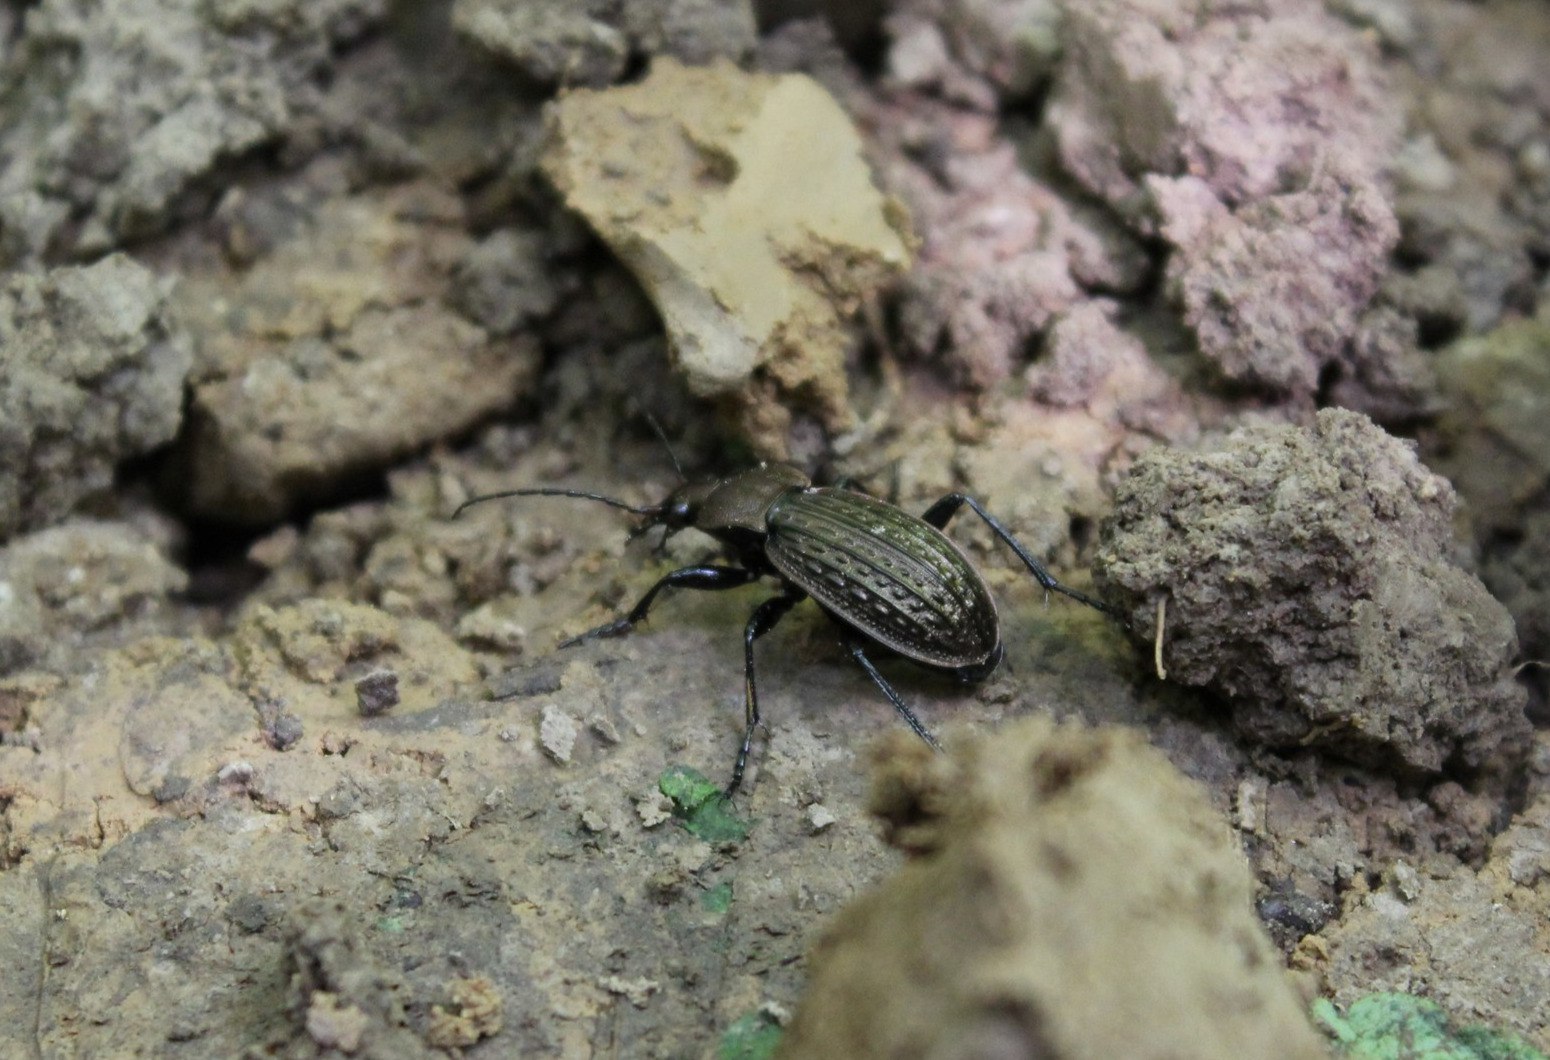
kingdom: Animalia
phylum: Arthropoda
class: Insecta
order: Coleoptera
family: Carabidae
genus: Carabus
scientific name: Carabus cancellatus
